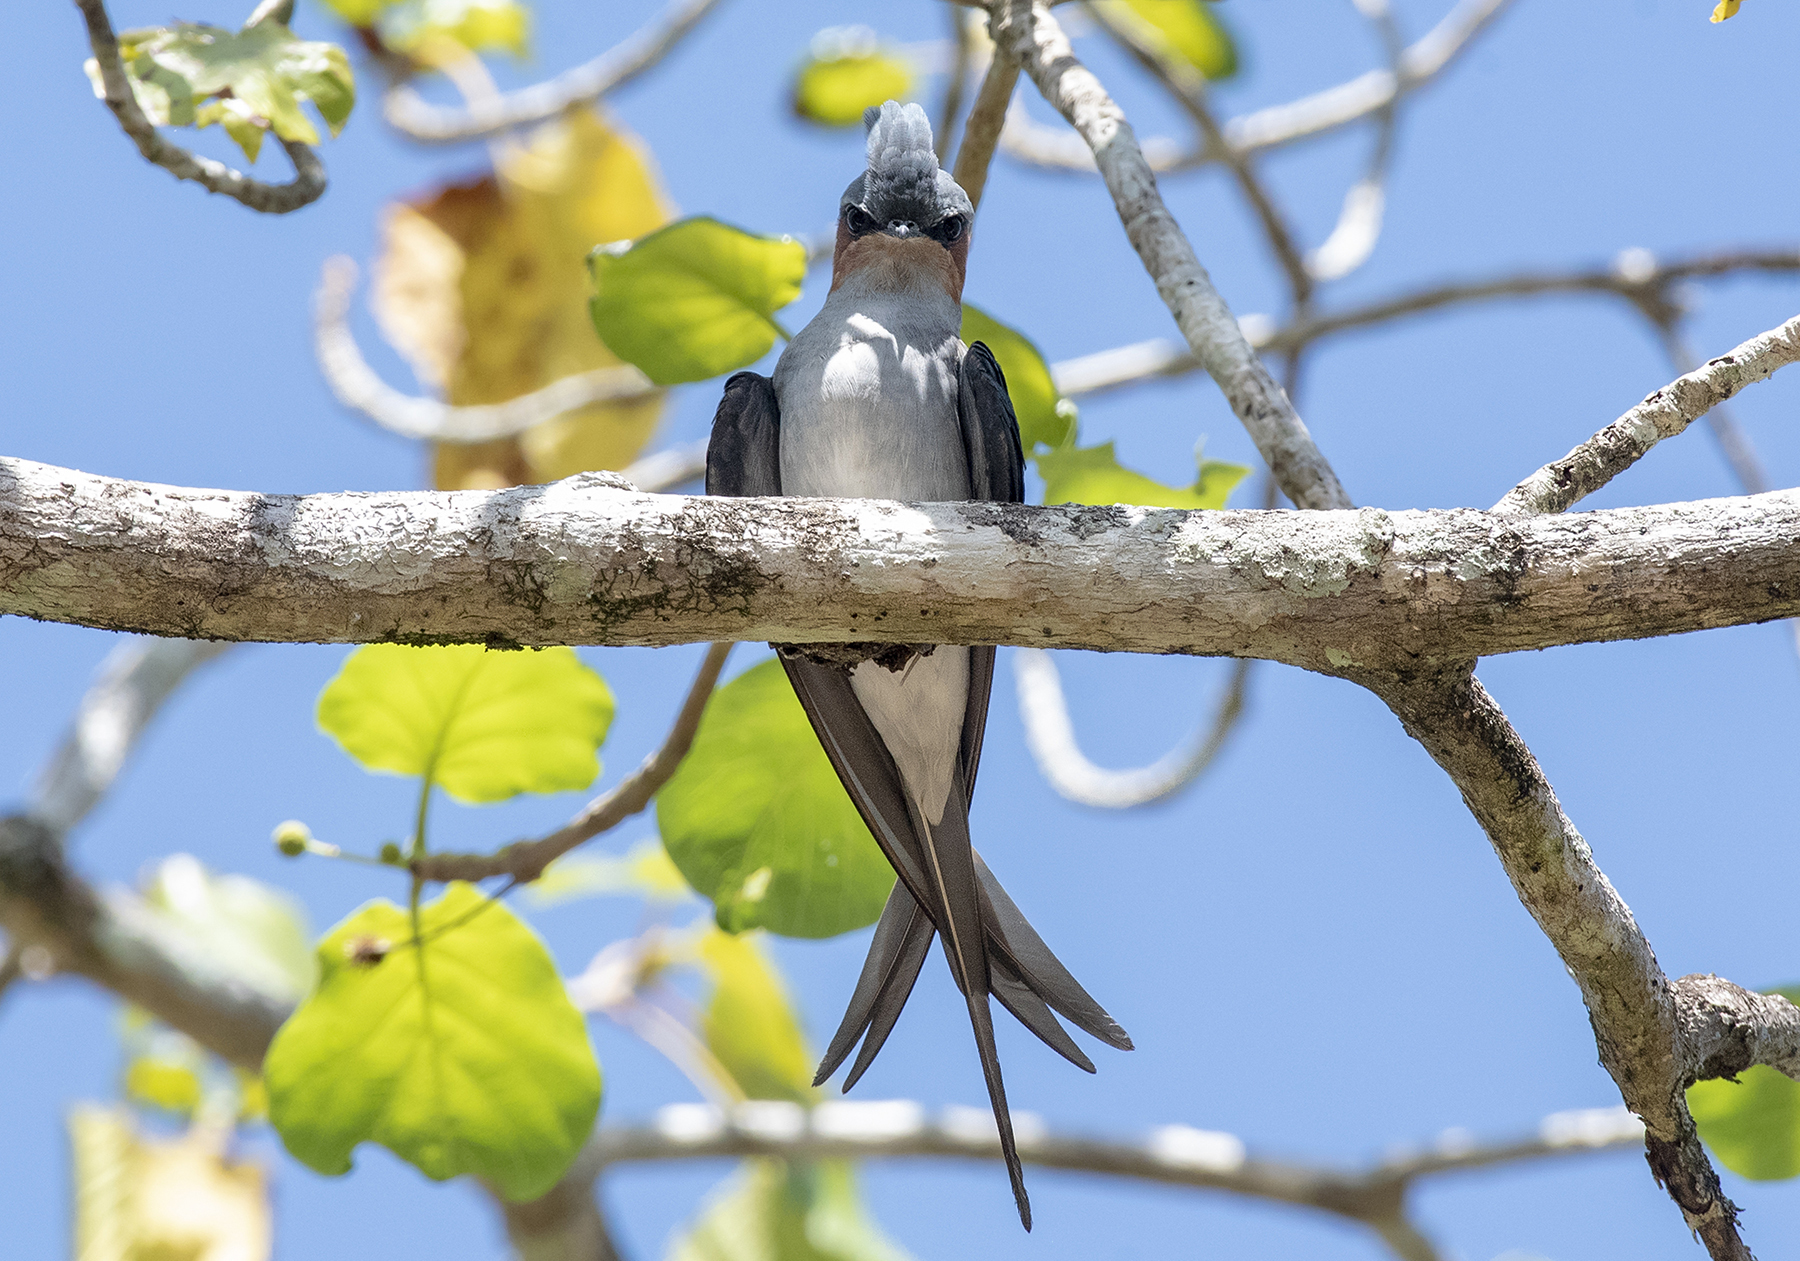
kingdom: Animalia
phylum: Chordata
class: Aves
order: Apodiformes
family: Hemiprocnidae
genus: Hemiprocne
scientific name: Hemiprocne coronata
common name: Crested treeswift
